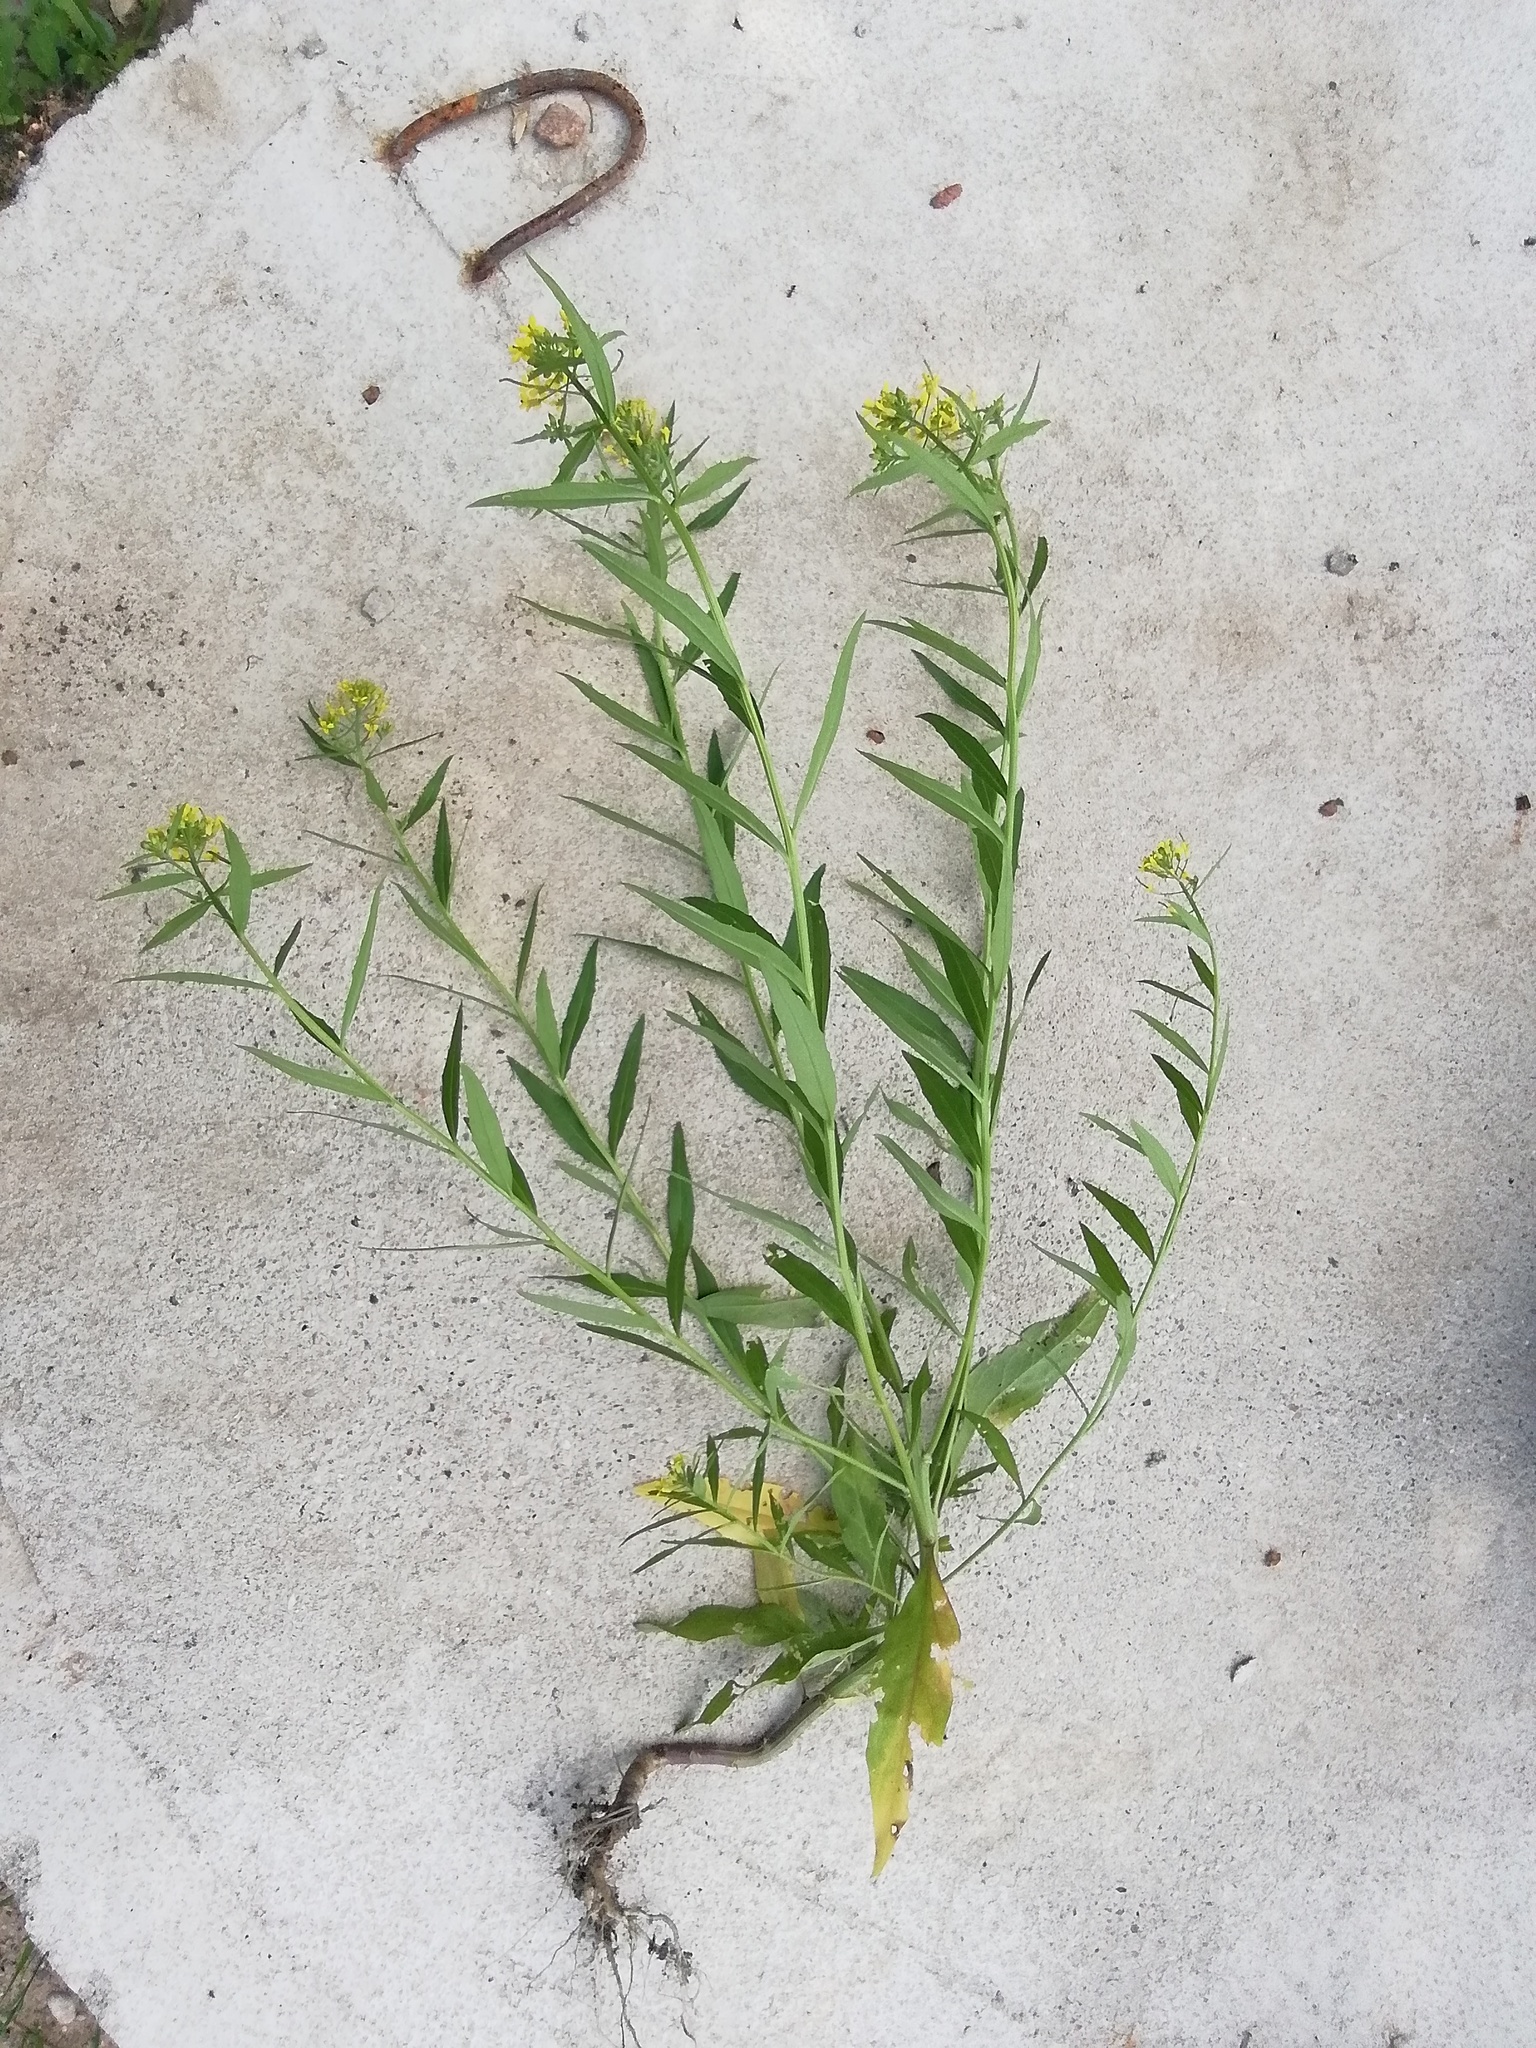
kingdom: Plantae
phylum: Tracheophyta
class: Magnoliopsida
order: Brassicales
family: Brassicaceae
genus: Erysimum
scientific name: Erysimum cheiranthoides
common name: Treacle mustard
